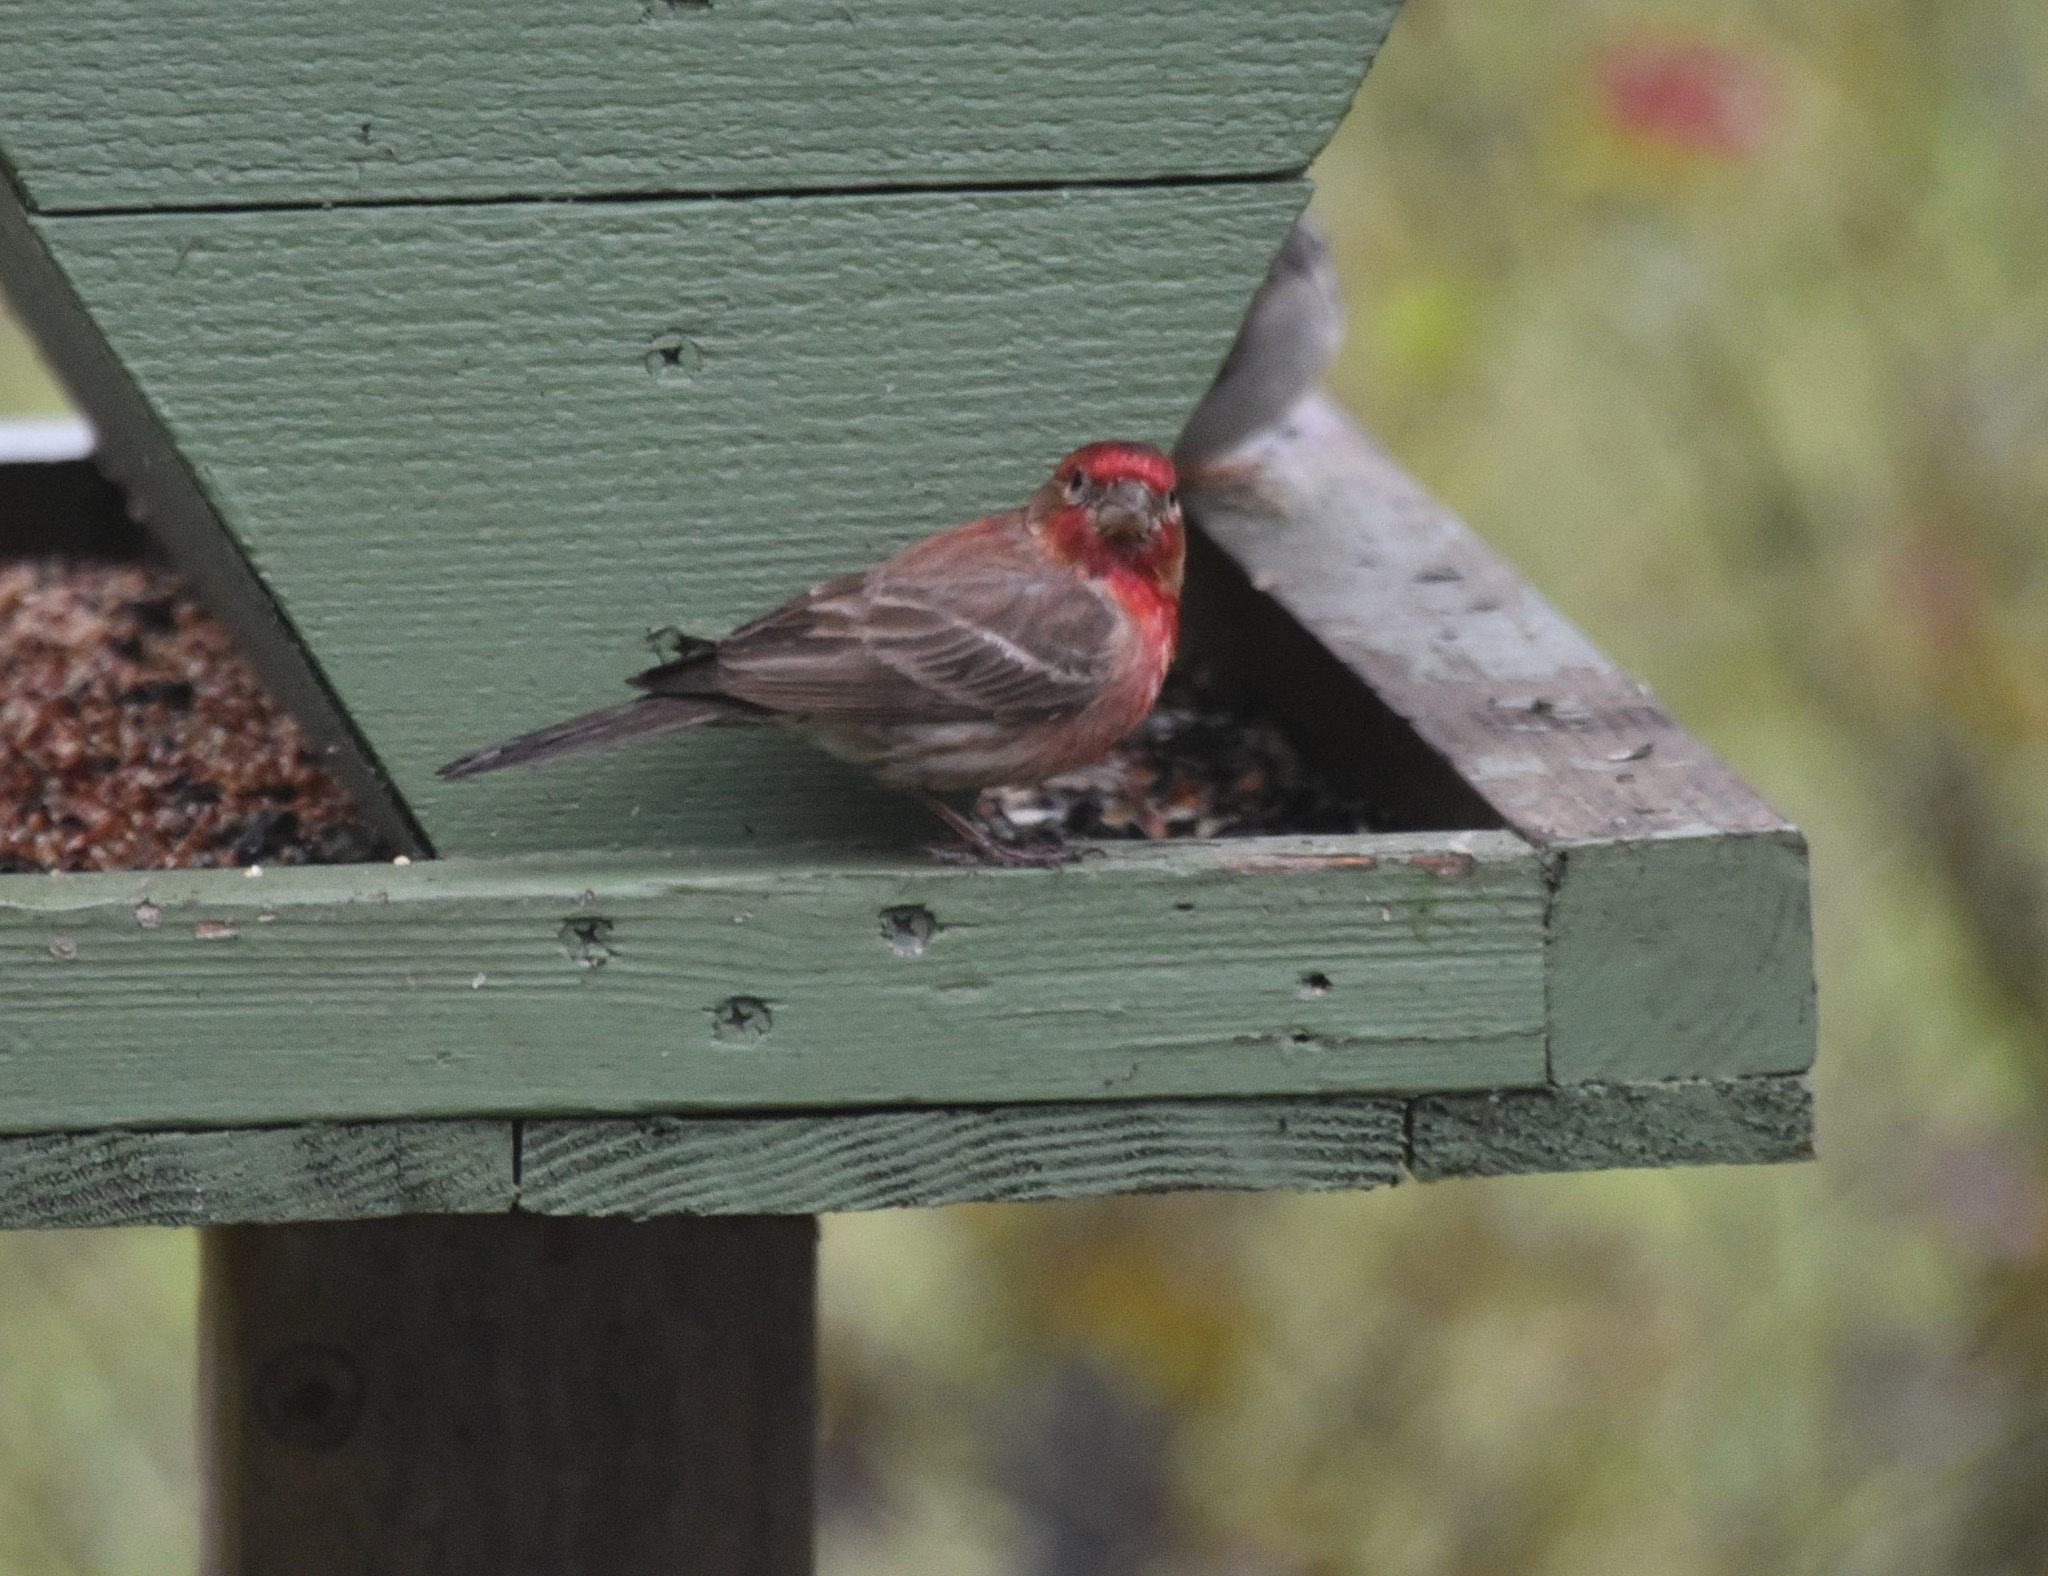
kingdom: Animalia
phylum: Chordata
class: Aves
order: Passeriformes
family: Fringillidae
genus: Haemorhous
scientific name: Haemorhous mexicanus
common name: House finch
